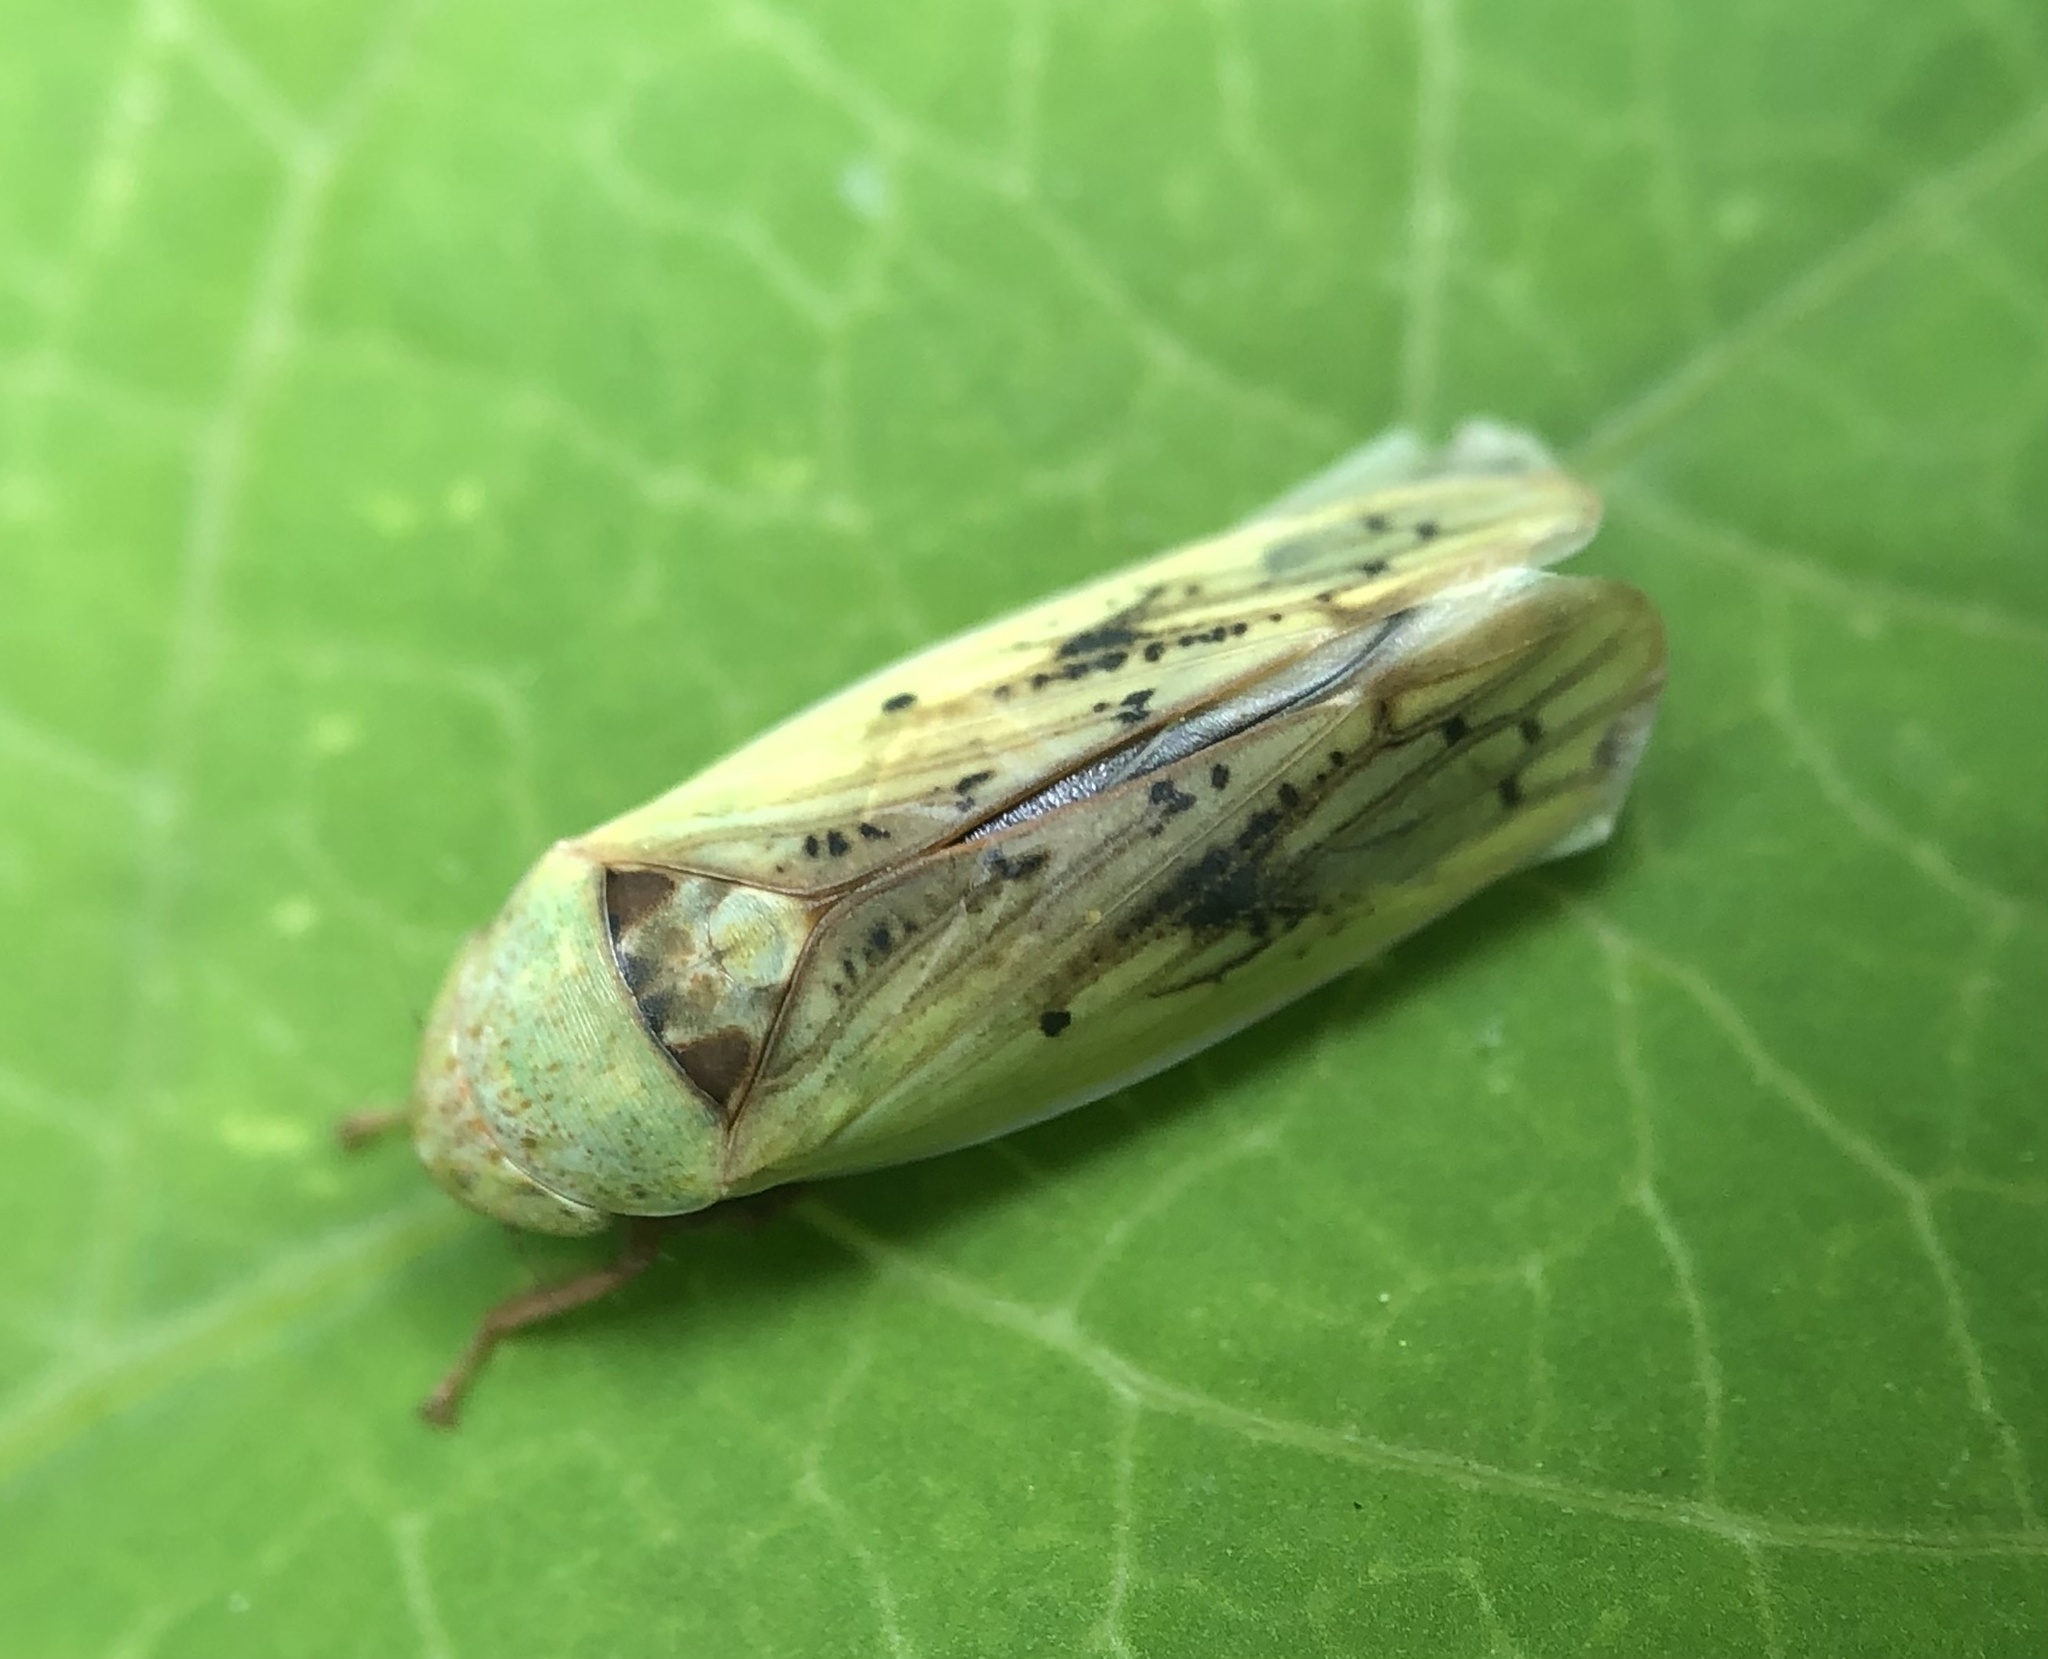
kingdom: Animalia
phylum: Arthropoda
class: Insecta
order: Hemiptera
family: Cicadellidae
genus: Ponana
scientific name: Ponana pectoralis
